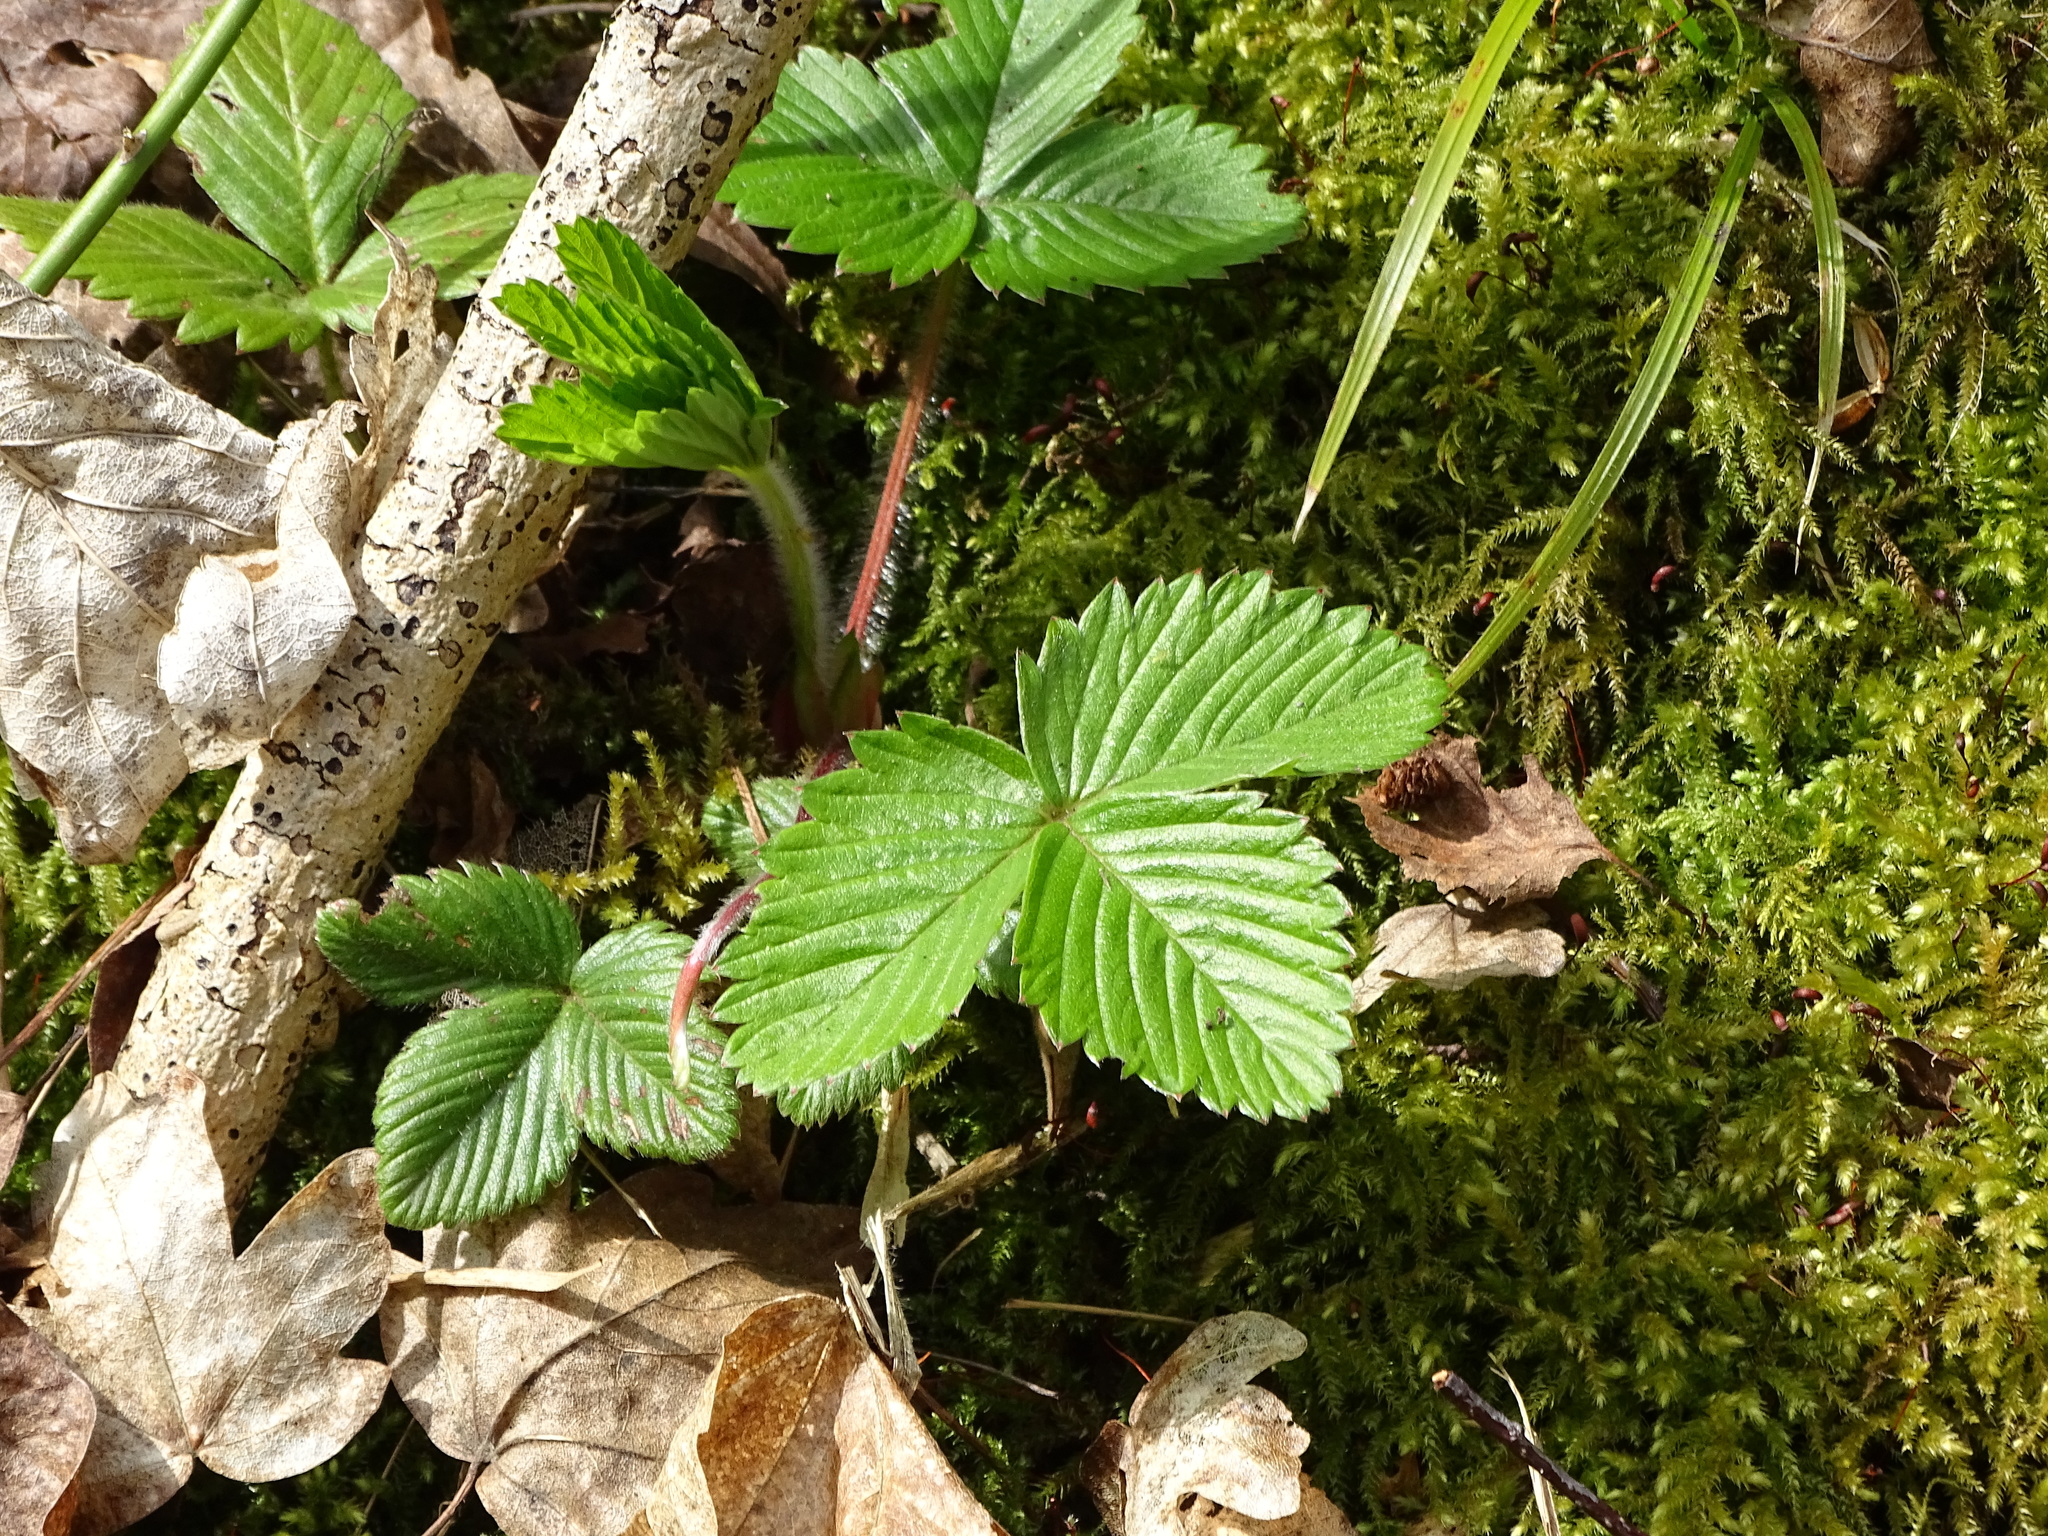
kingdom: Plantae
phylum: Tracheophyta
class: Magnoliopsida
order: Rosales
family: Rosaceae
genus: Fragaria
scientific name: Fragaria vesca
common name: Wild strawberry
